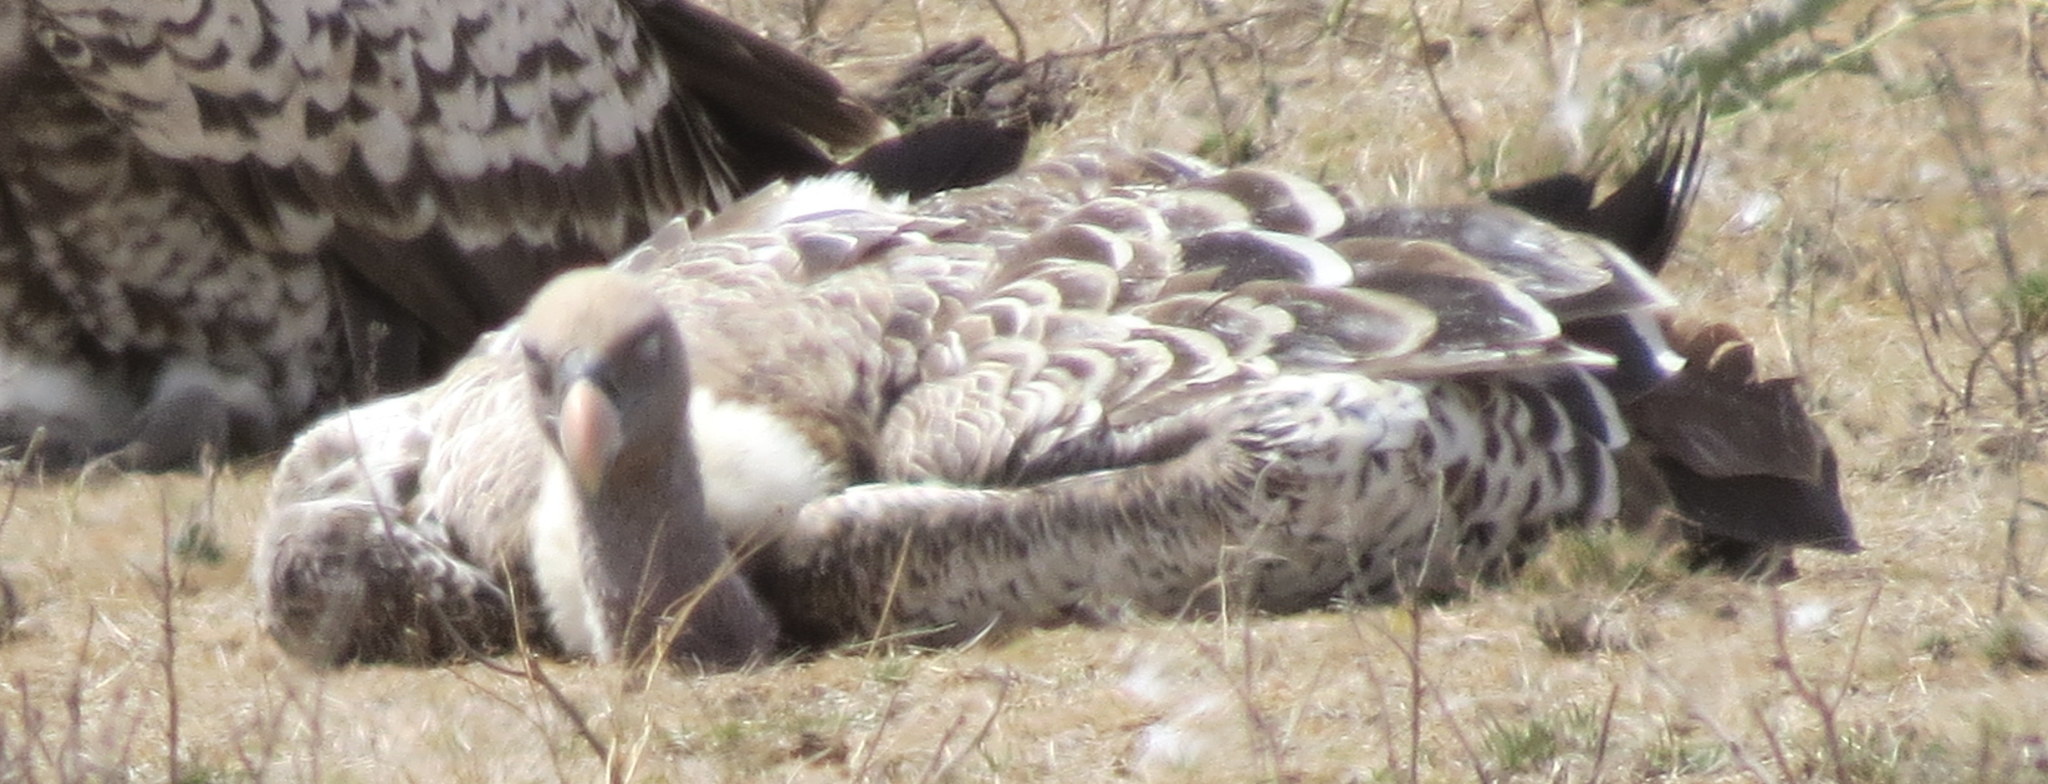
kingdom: Animalia
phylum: Chordata
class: Aves
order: Accipitriformes
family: Accipitridae
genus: Gyps
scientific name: Gyps rueppellii
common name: Rüppell's vulture
